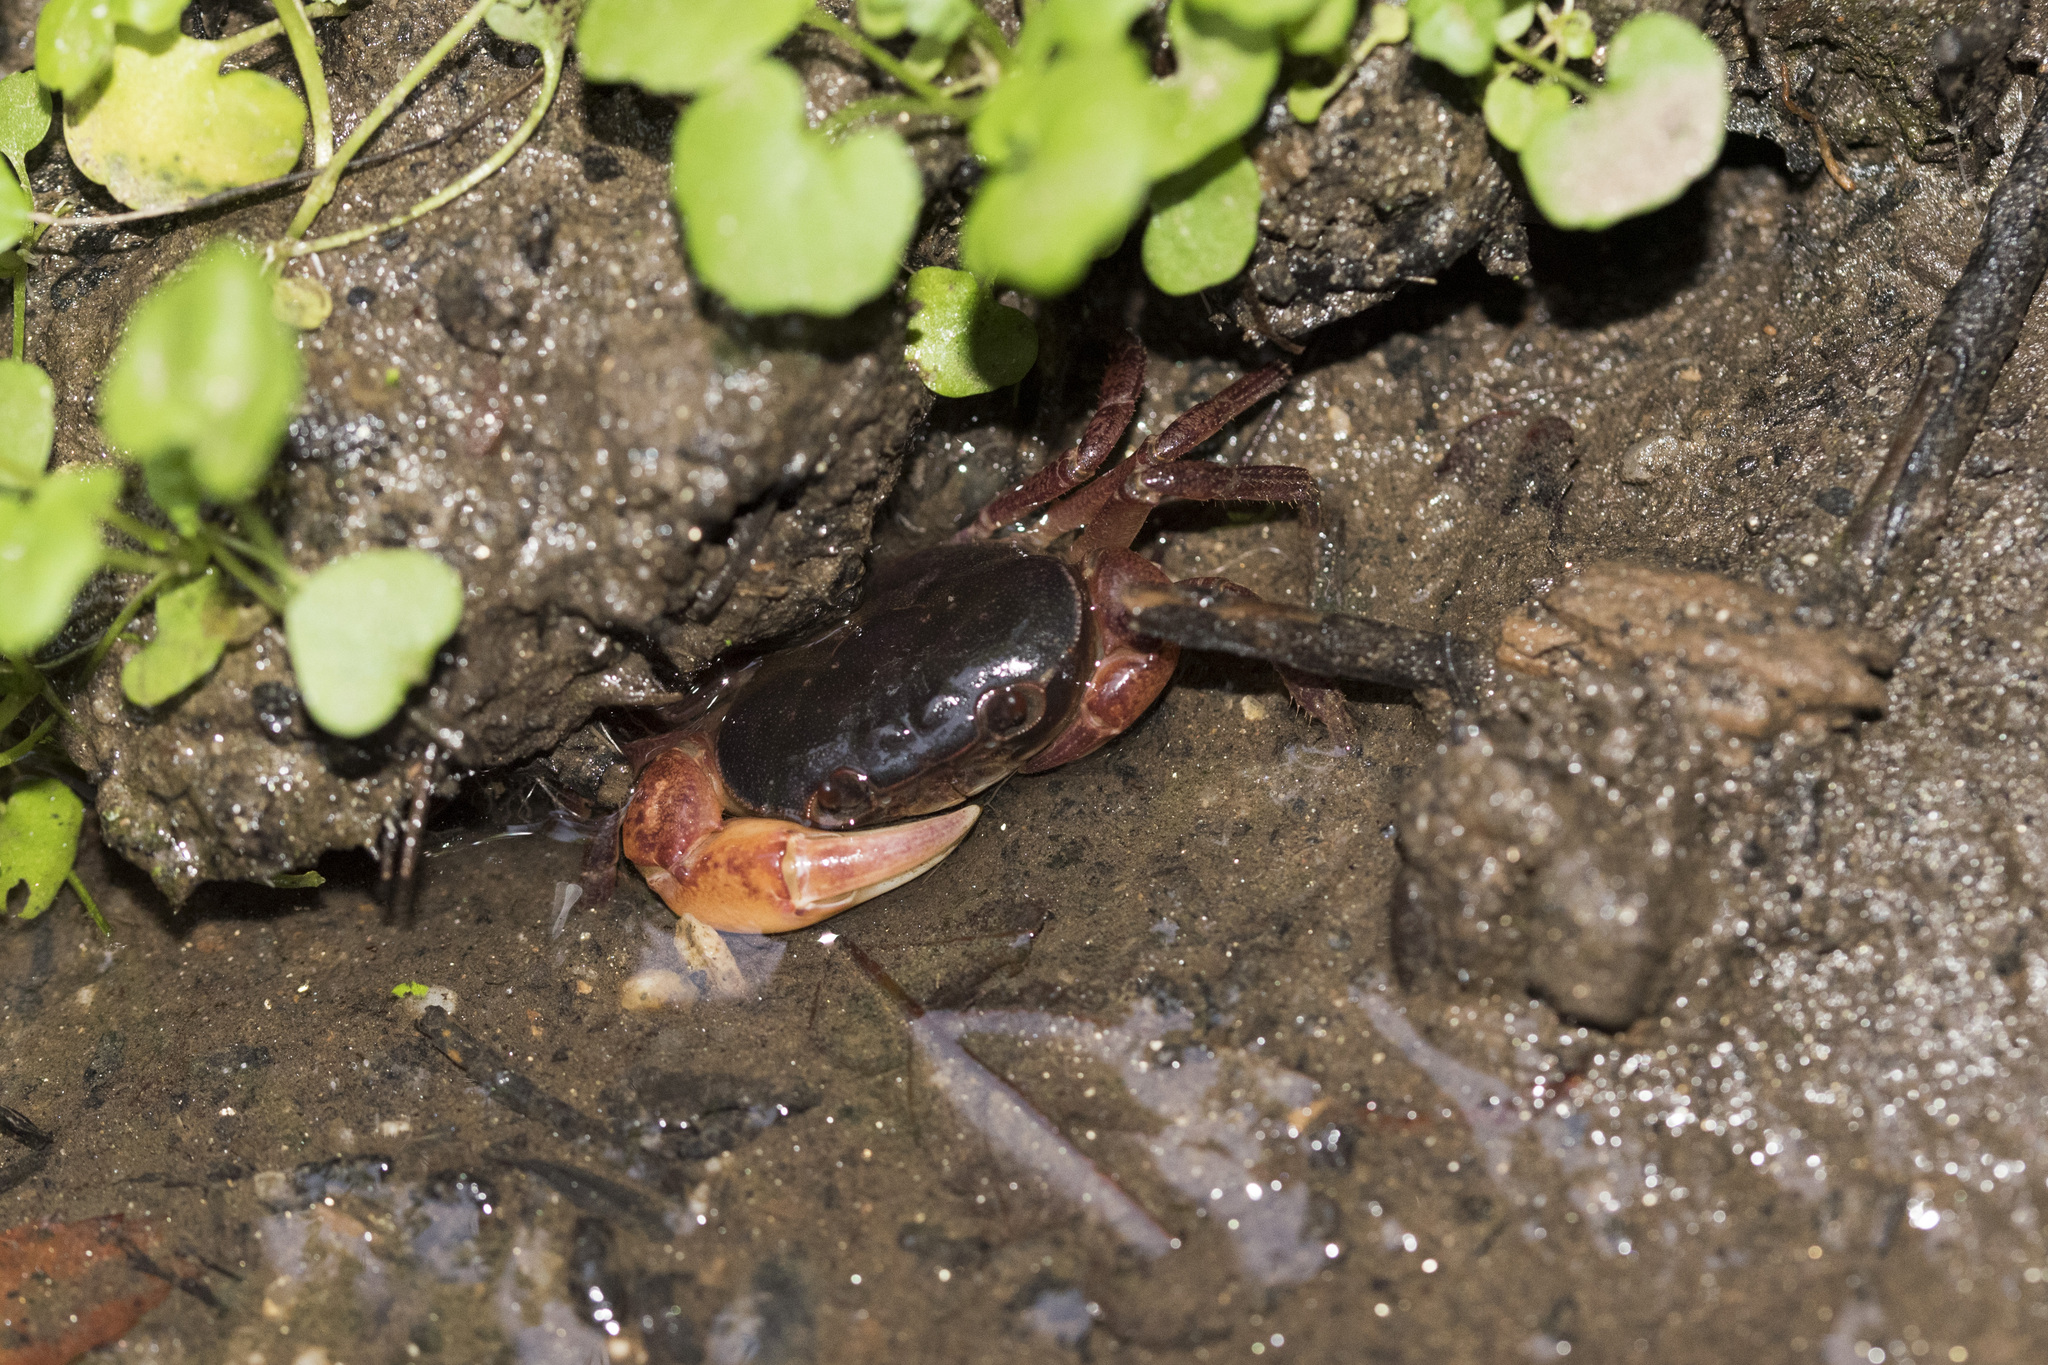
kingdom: Animalia
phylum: Arthropoda
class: Malacostraca
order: Decapoda
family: Potamidae
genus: Geothelphusa
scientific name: Geothelphusa dehaani
